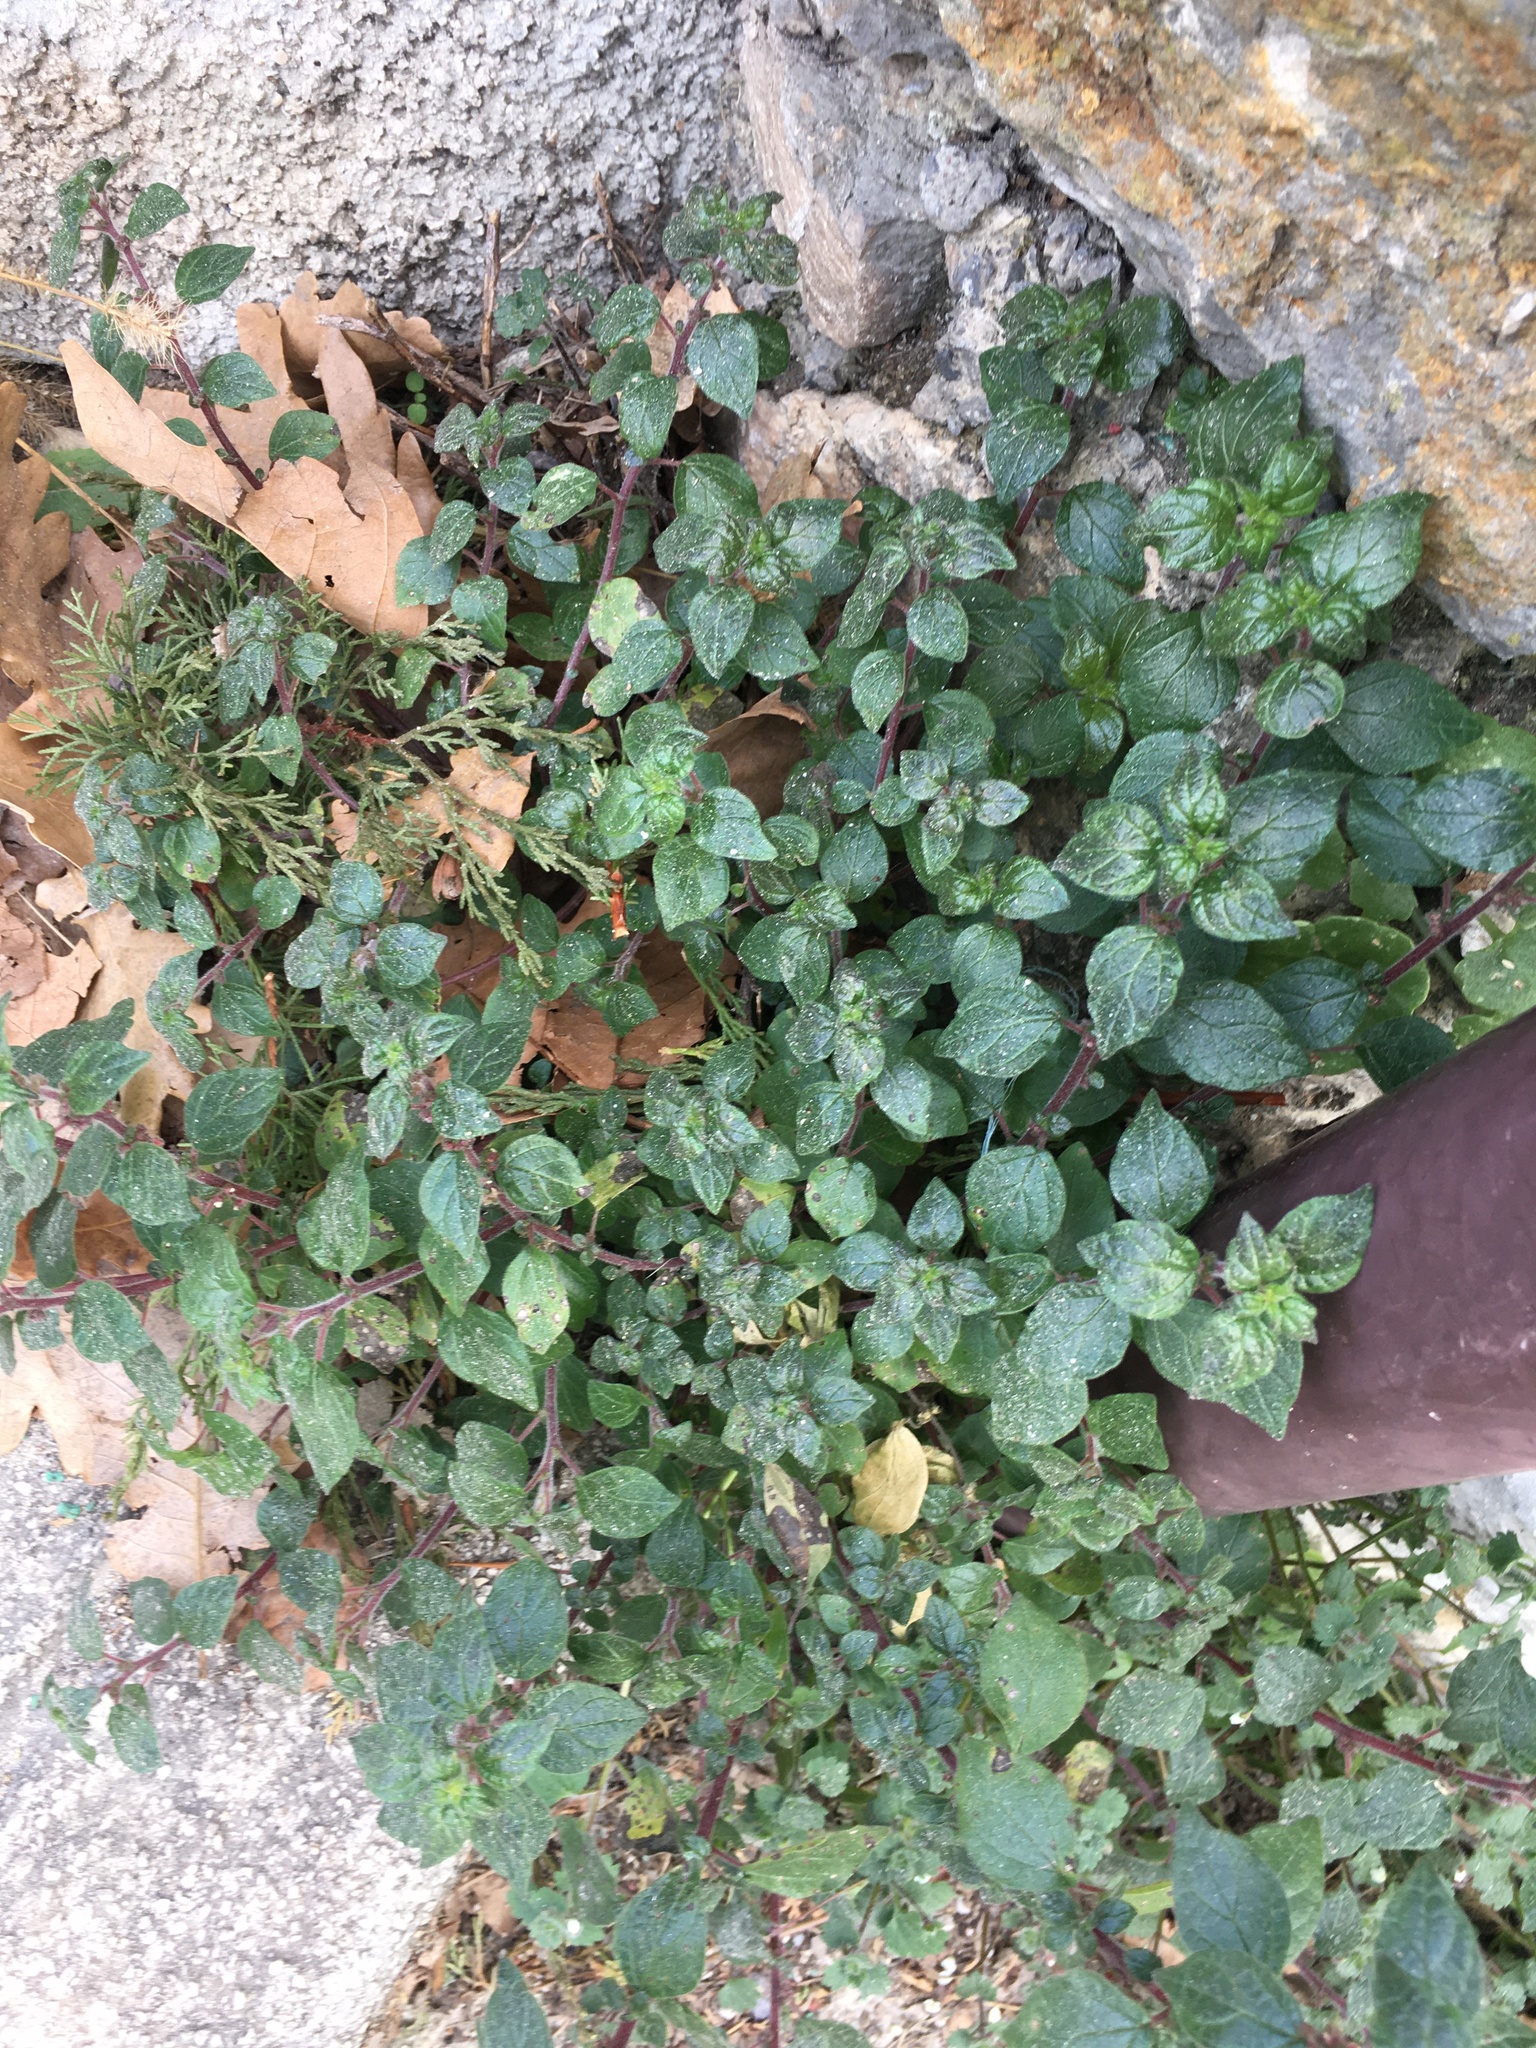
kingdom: Plantae
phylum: Tracheophyta
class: Magnoliopsida
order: Rosales
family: Urticaceae
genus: Parietaria
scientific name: Parietaria judaica
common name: Pellitory-of-the-wall
